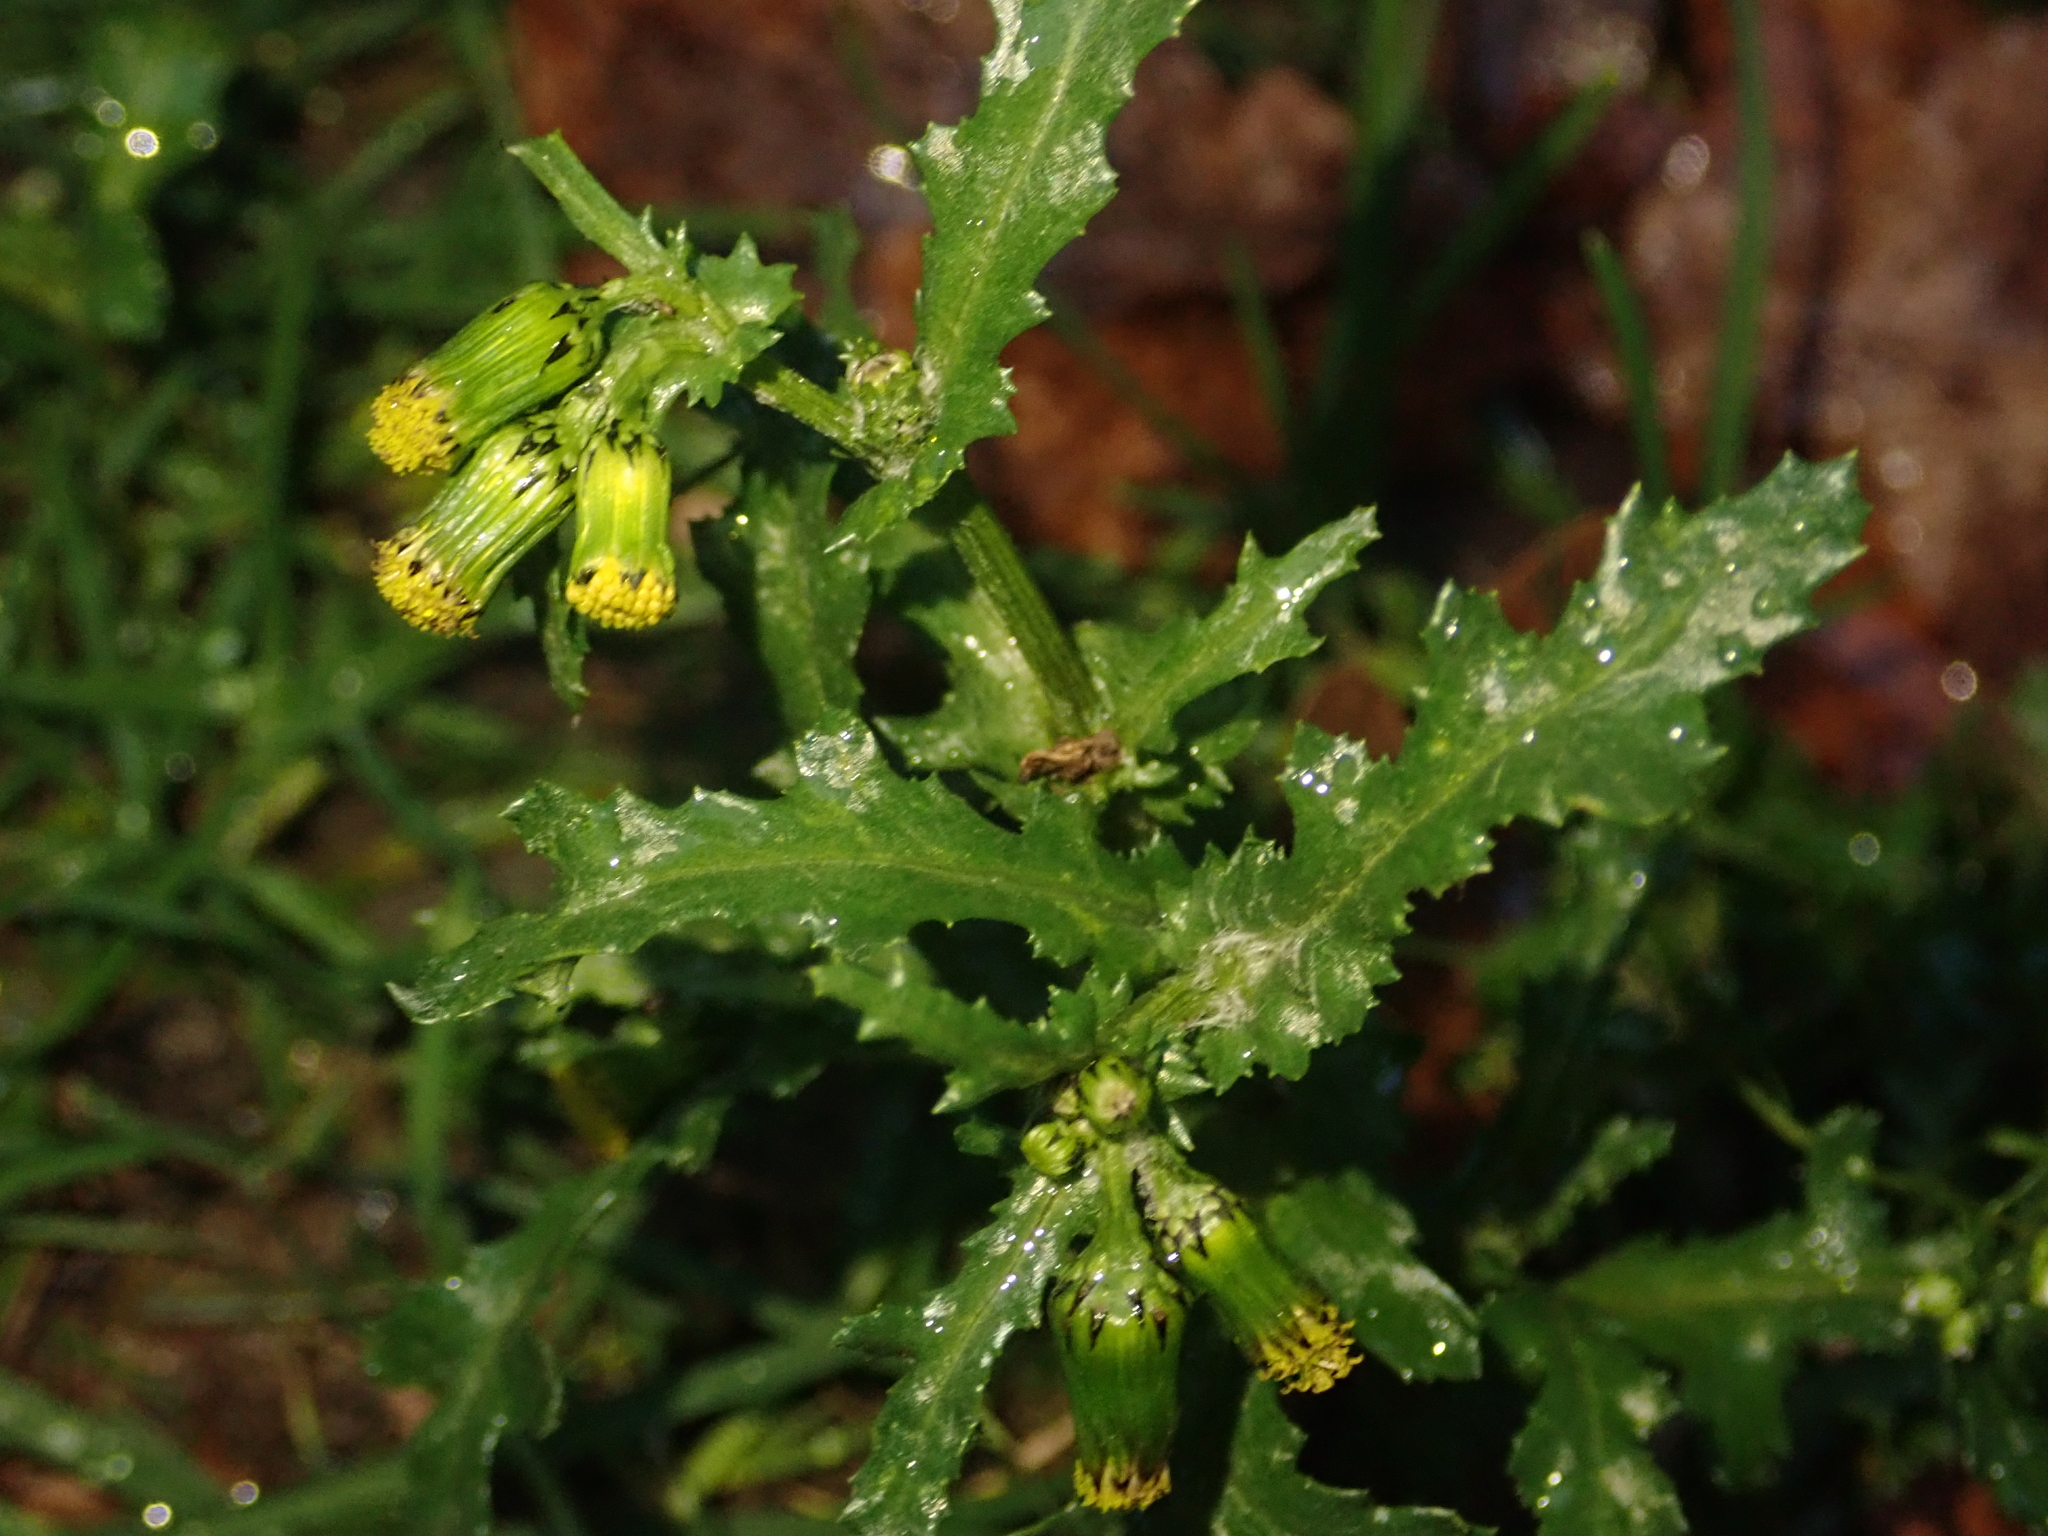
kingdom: Plantae
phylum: Tracheophyta
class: Magnoliopsida
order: Asterales
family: Asteraceae
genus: Senecio
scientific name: Senecio vulgaris
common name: Old-man-in-the-spring
